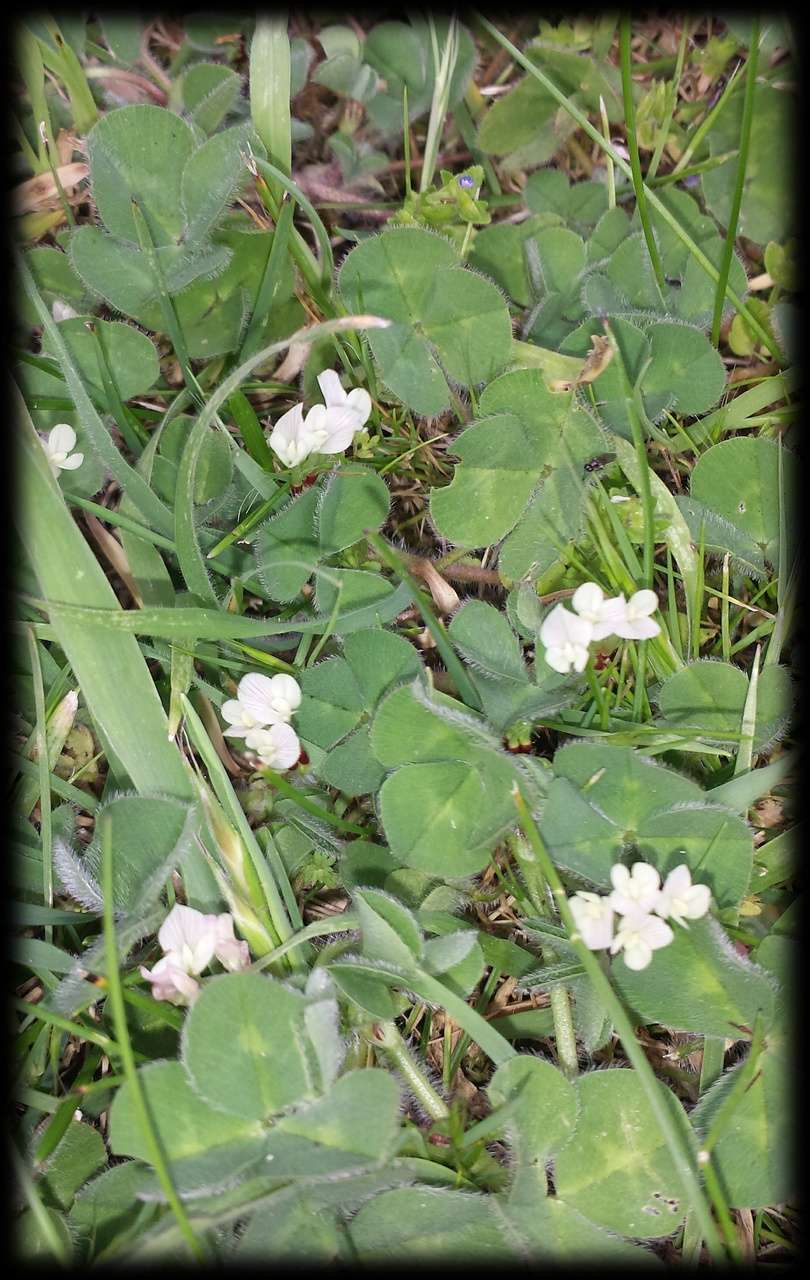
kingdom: Plantae
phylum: Tracheophyta
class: Magnoliopsida
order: Fabales
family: Fabaceae
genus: Trifolium
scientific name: Trifolium subterraneum
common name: Subterranean clover
